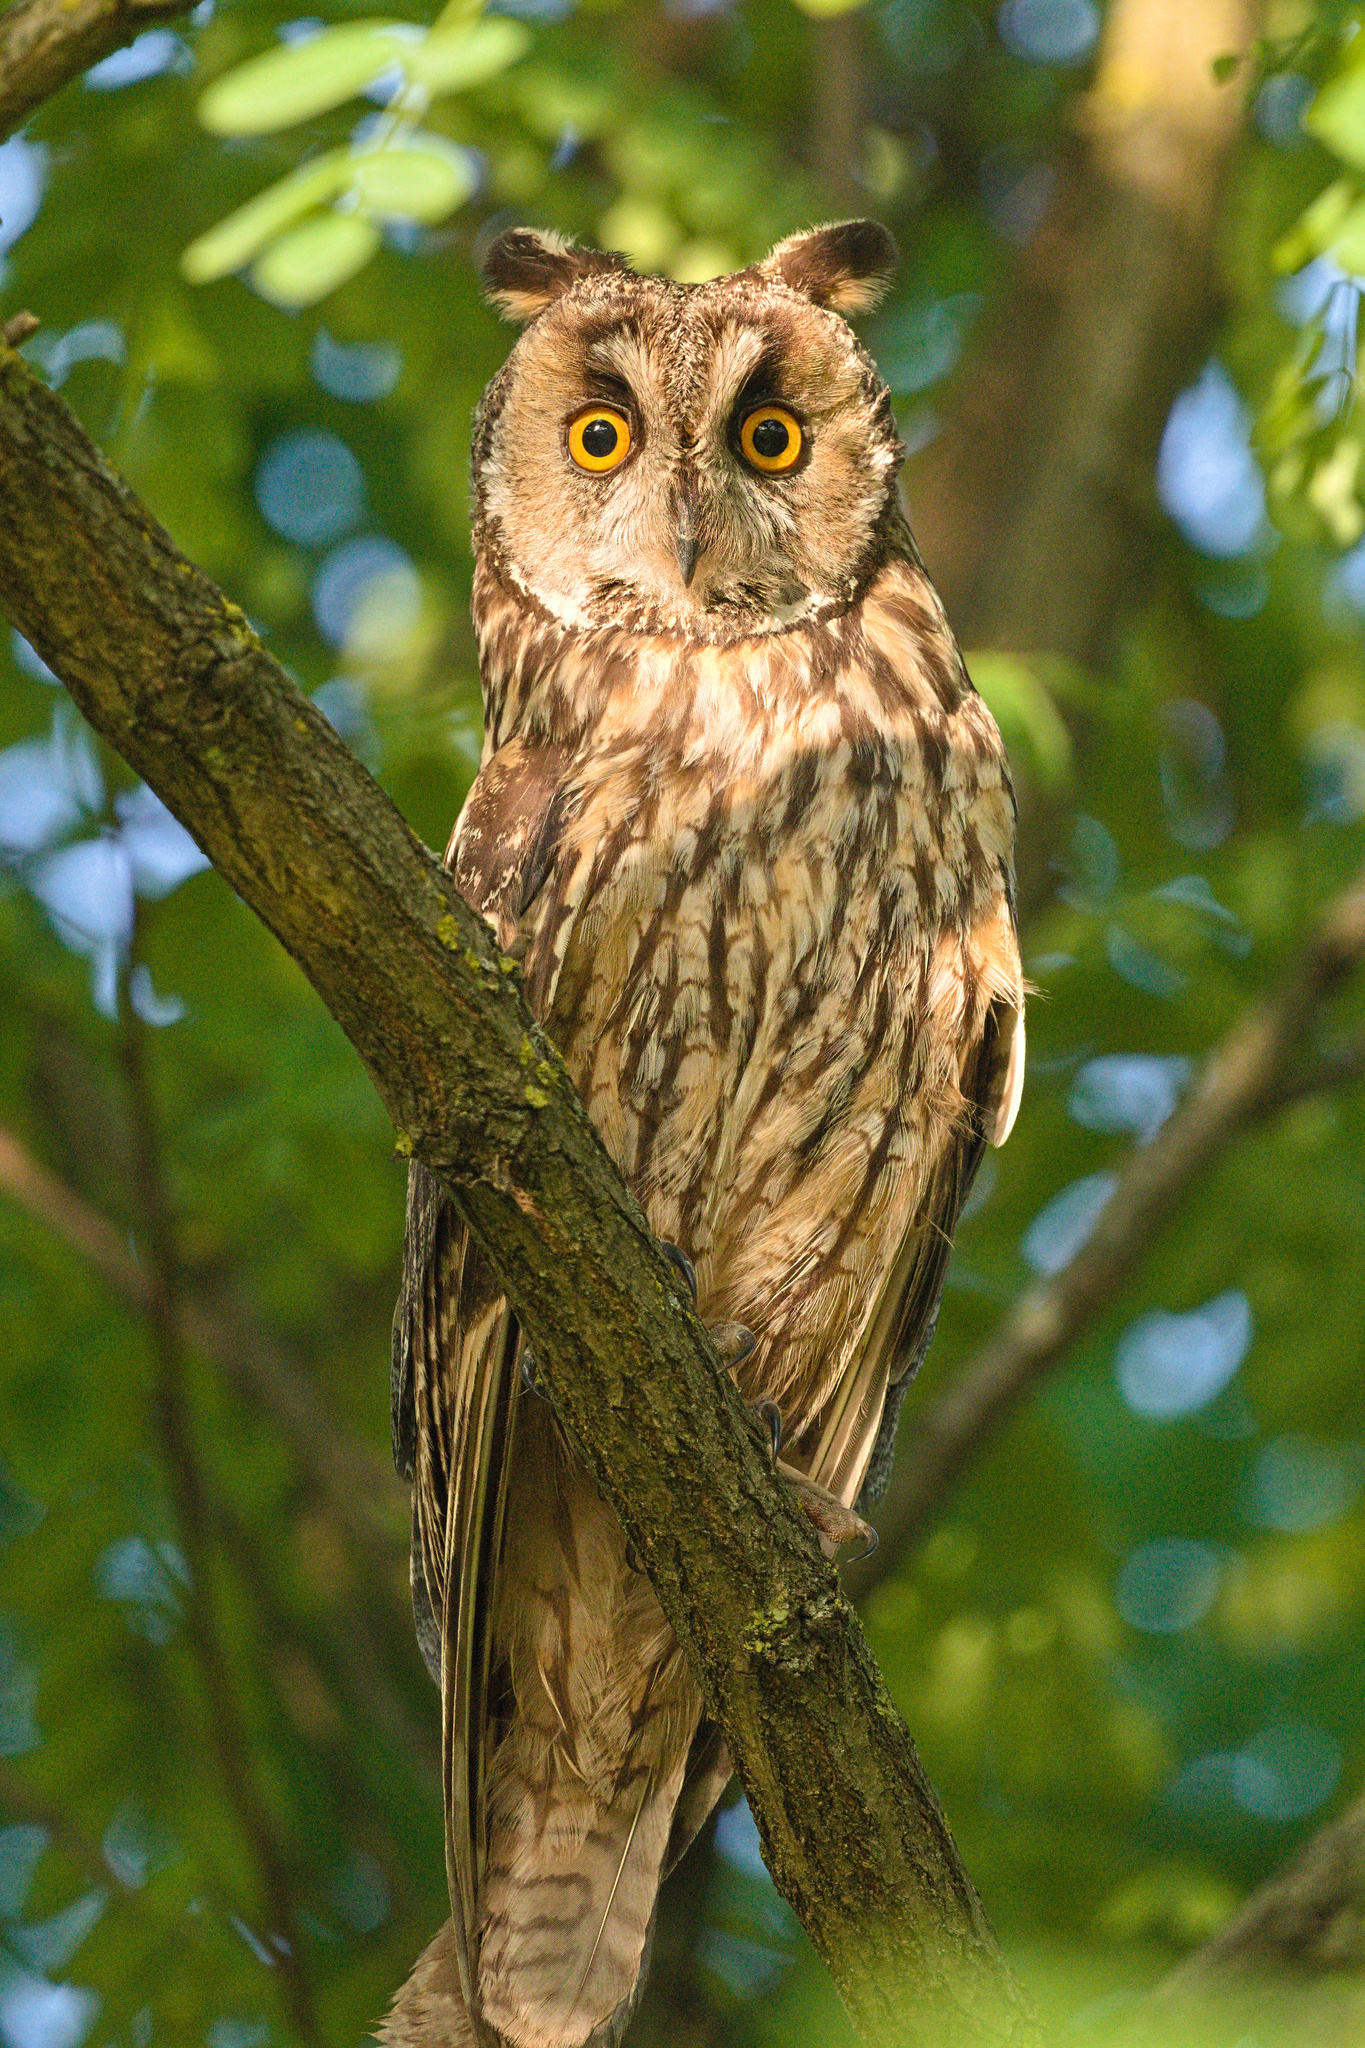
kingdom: Animalia
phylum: Chordata
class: Aves
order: Strigiformes
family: Strigidae
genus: Asio
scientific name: Asio otus
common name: Long-eared owl
